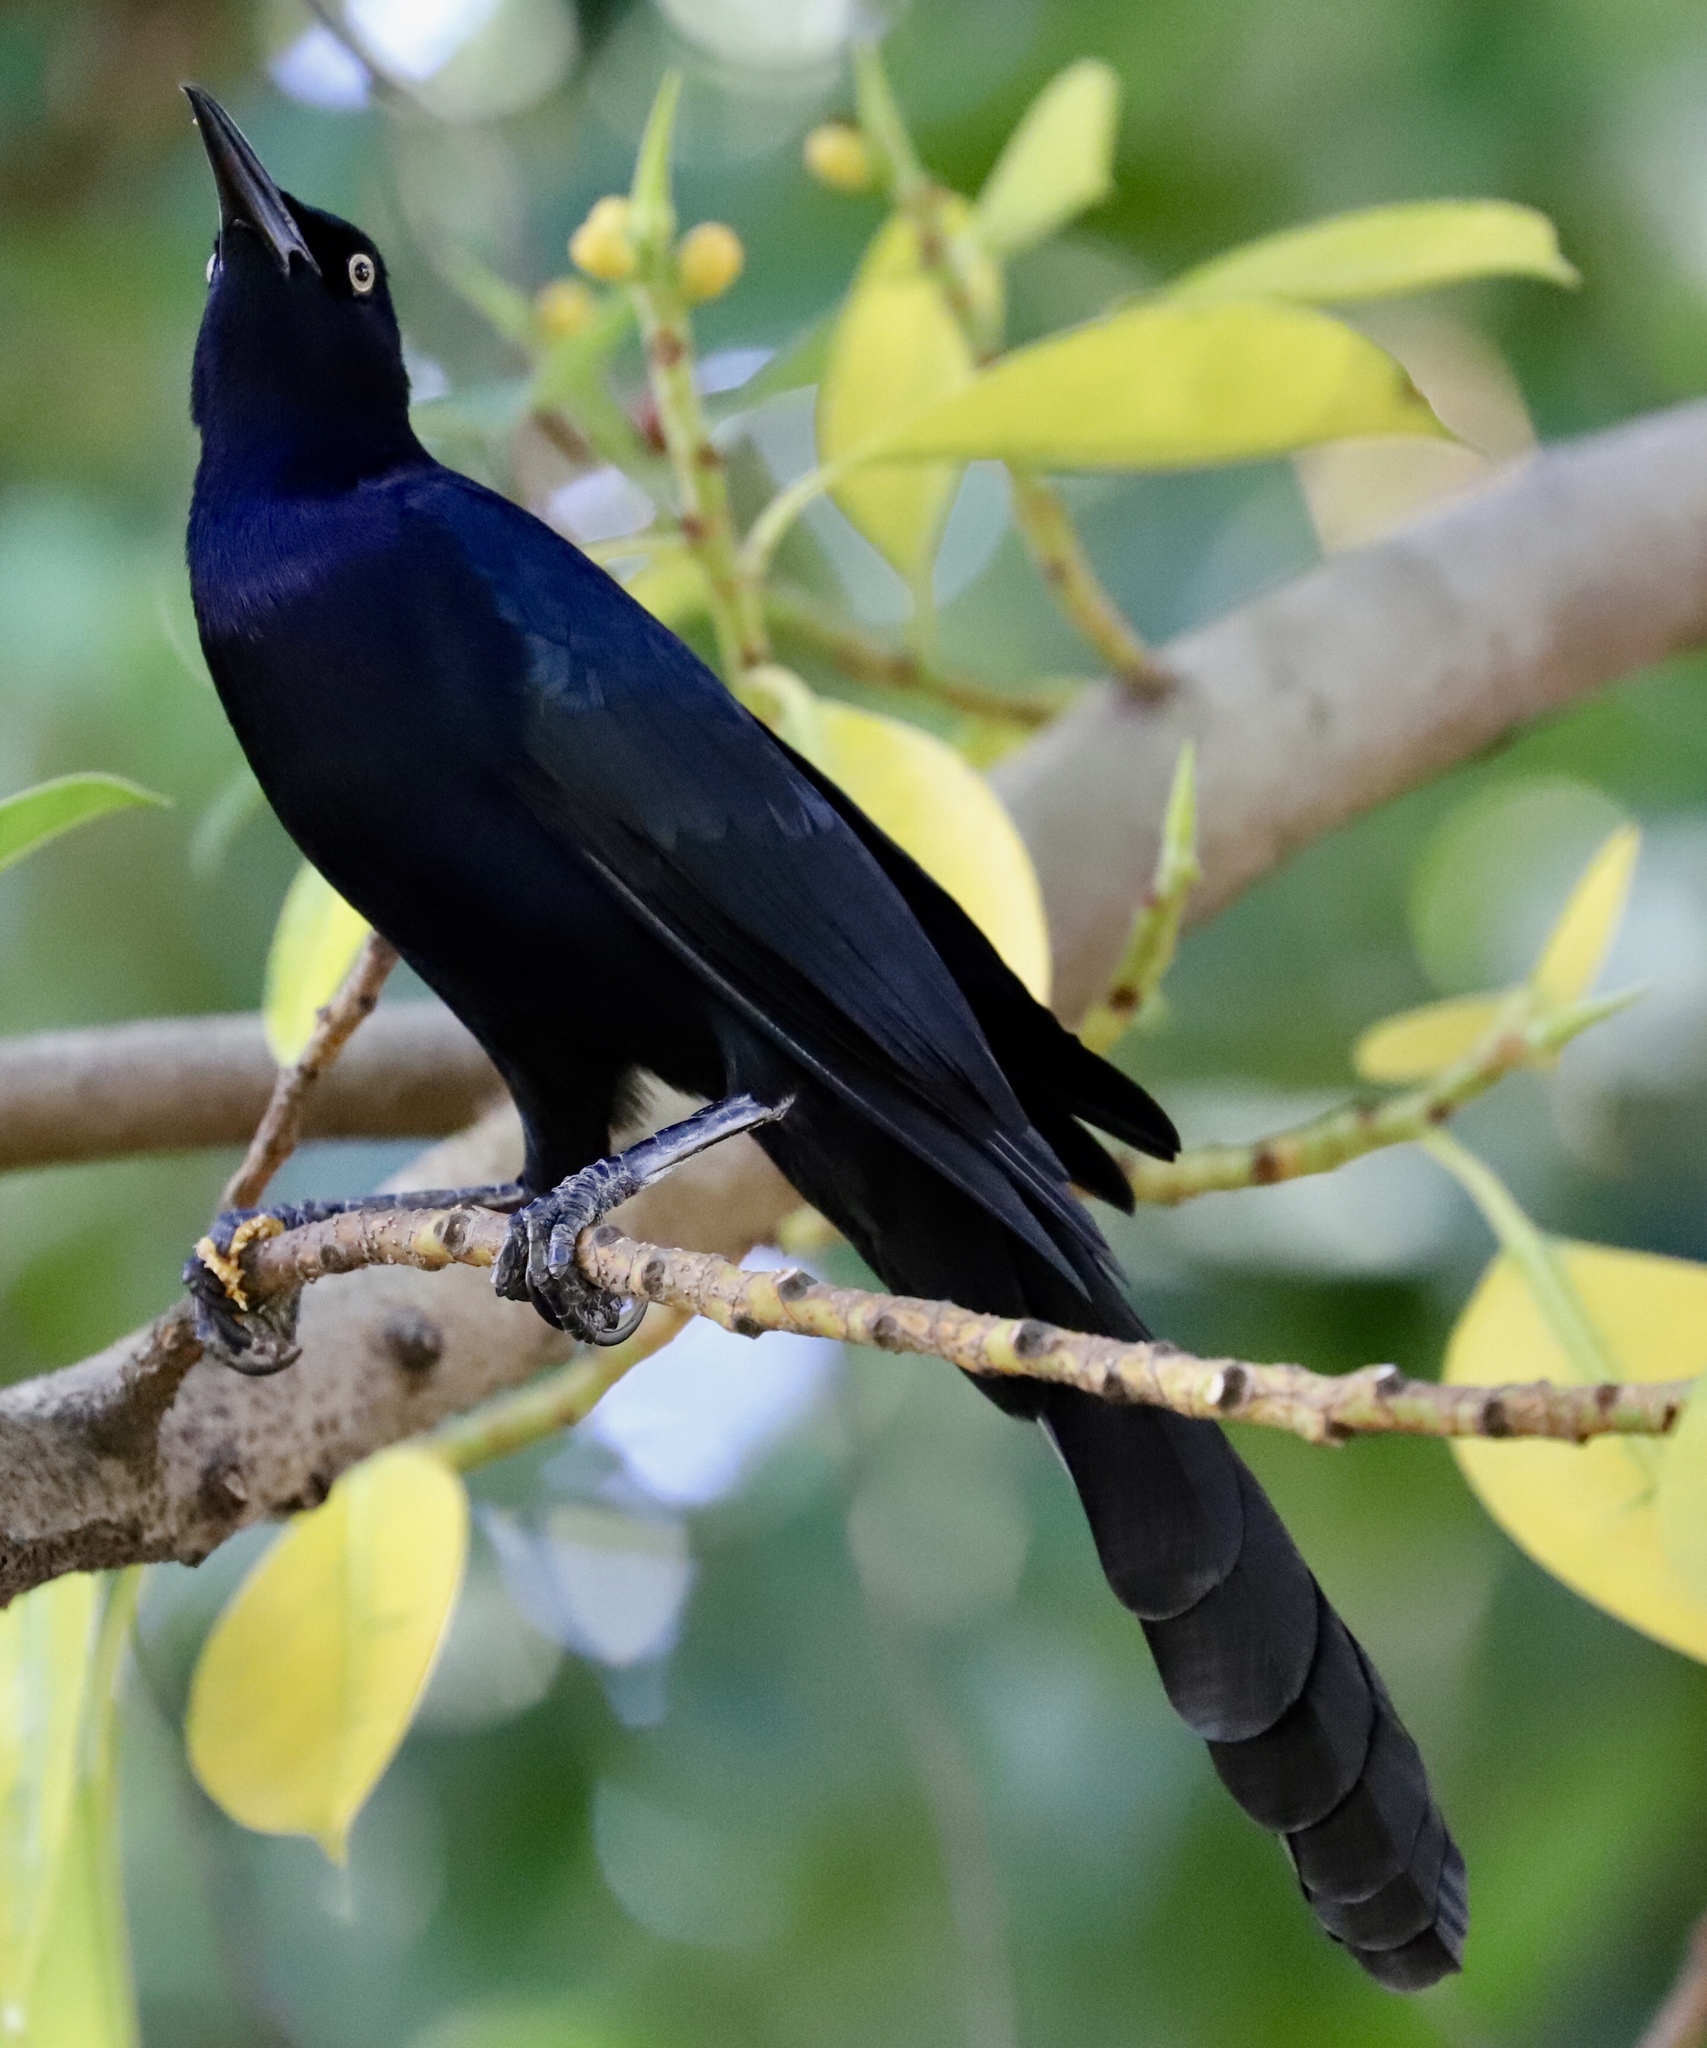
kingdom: Animalia
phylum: Chordata
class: Aves
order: Passeriformes
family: Icteridae
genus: Quiscalus
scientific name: Quiscalus mexicanus
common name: Great-tailed grackle
